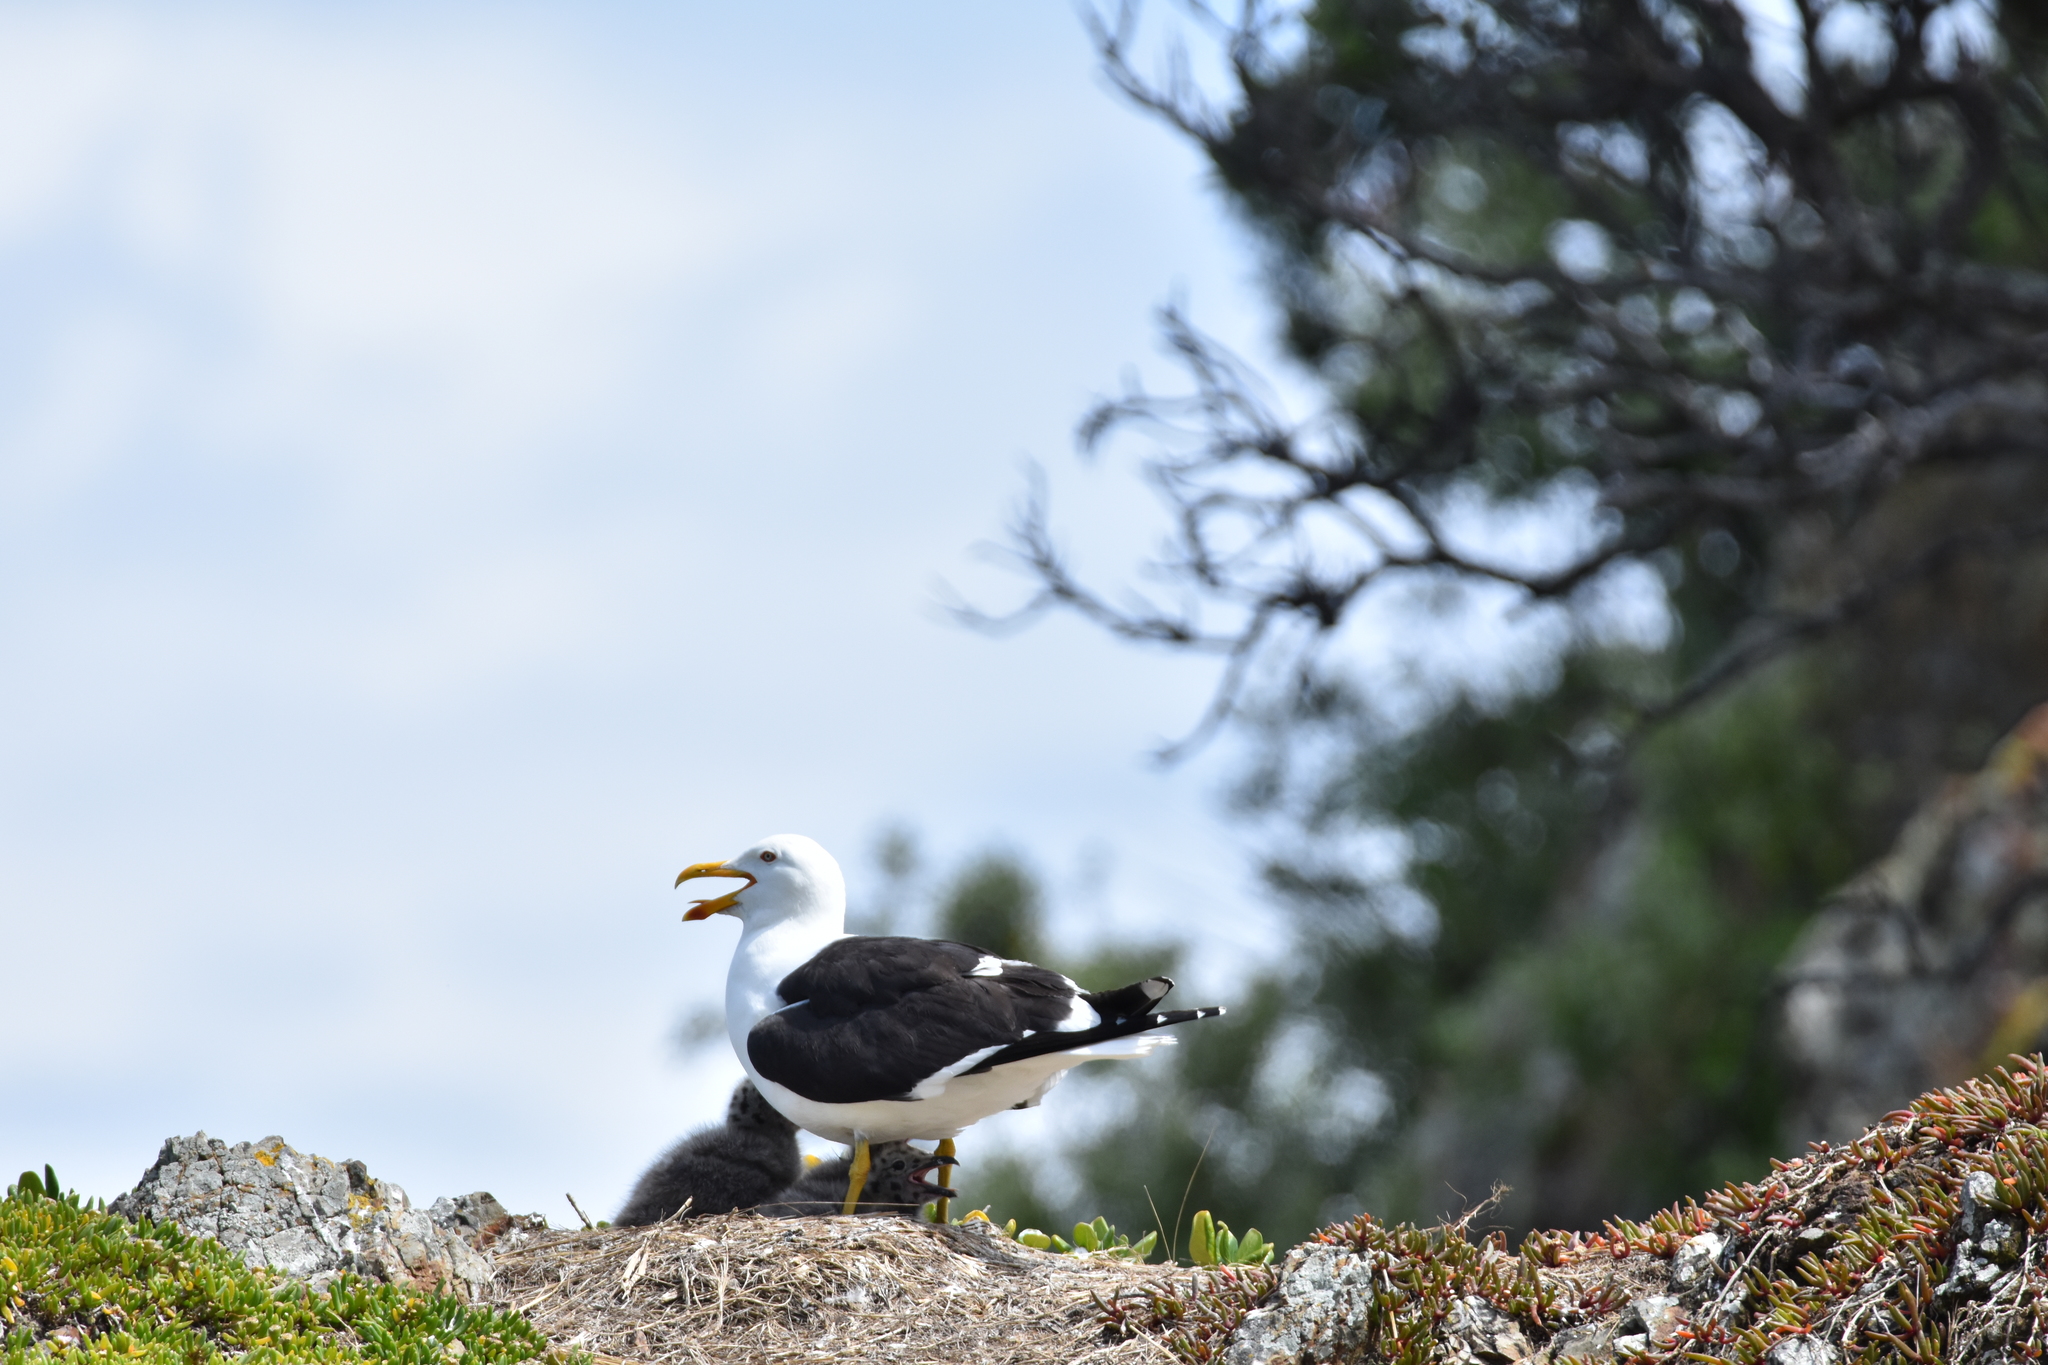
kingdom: Animalia
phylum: Chordata
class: Aves
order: Charadriiformes
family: Laridae
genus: Larus
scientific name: Larus dominicanus
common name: Kelp gull
